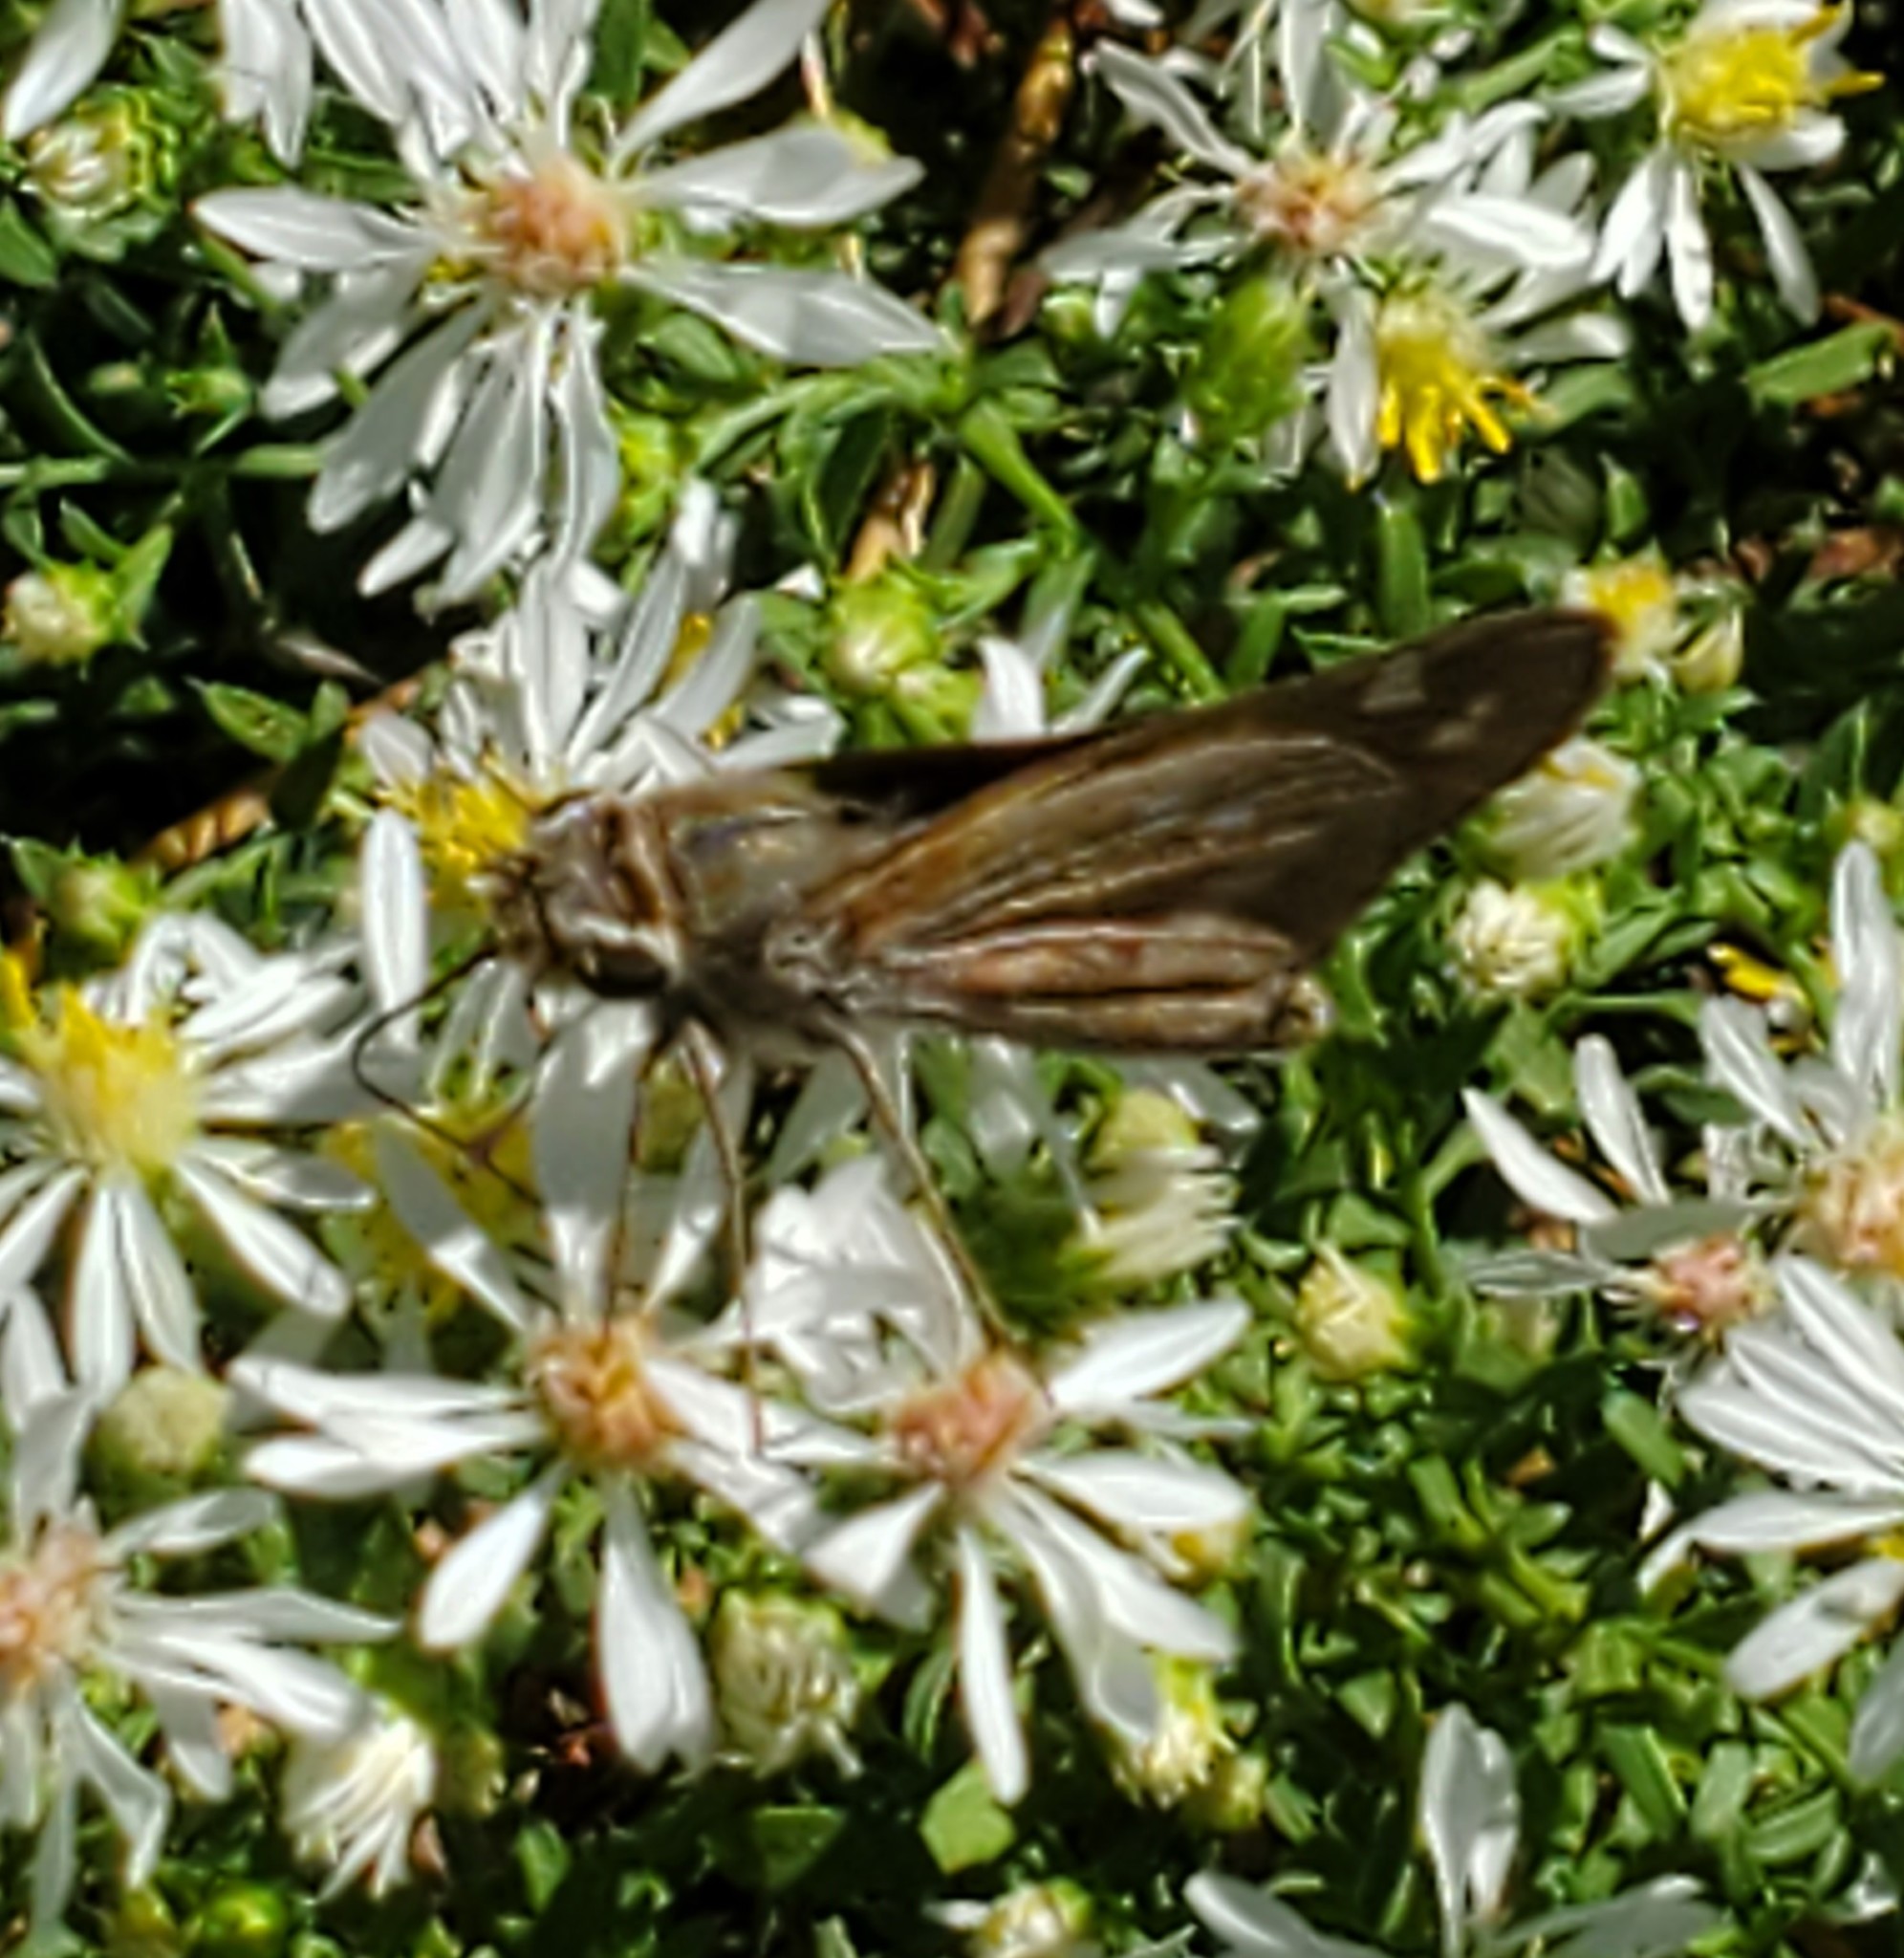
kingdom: Animalia
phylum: Arthropoda
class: Insecta
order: Lepidoptera
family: Hesperiidae
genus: Atalopedes
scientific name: Atalopedes
